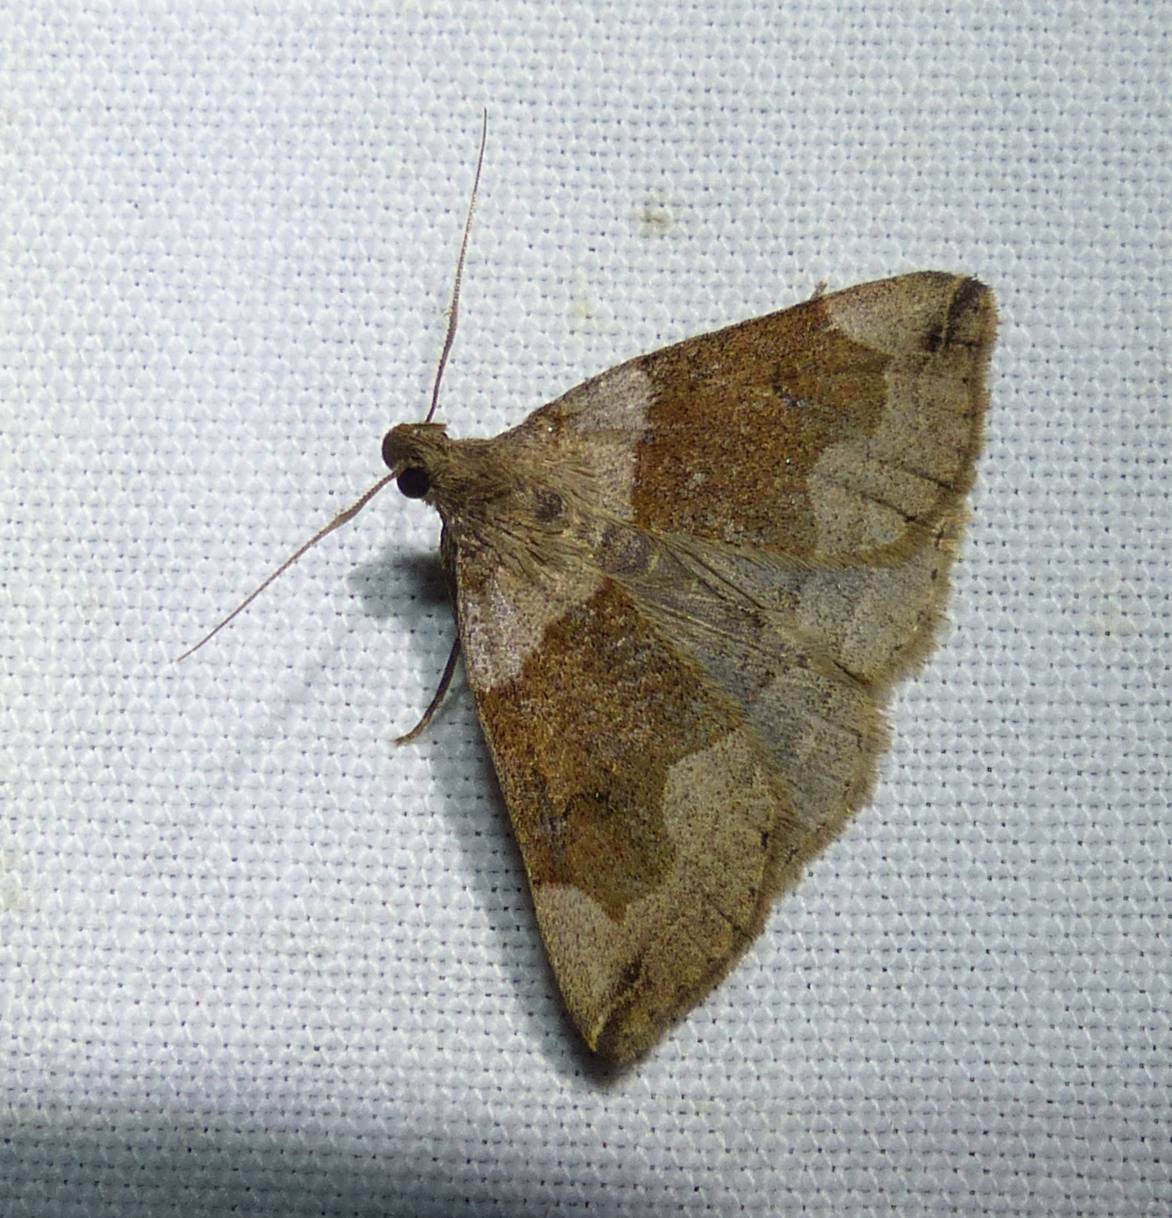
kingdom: Animalia
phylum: Arthropoda
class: Insecta
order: Lepidoptera
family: Erebidae
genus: Zanclognatha
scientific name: Zanclognatha laevigata
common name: Variable fan-foot
